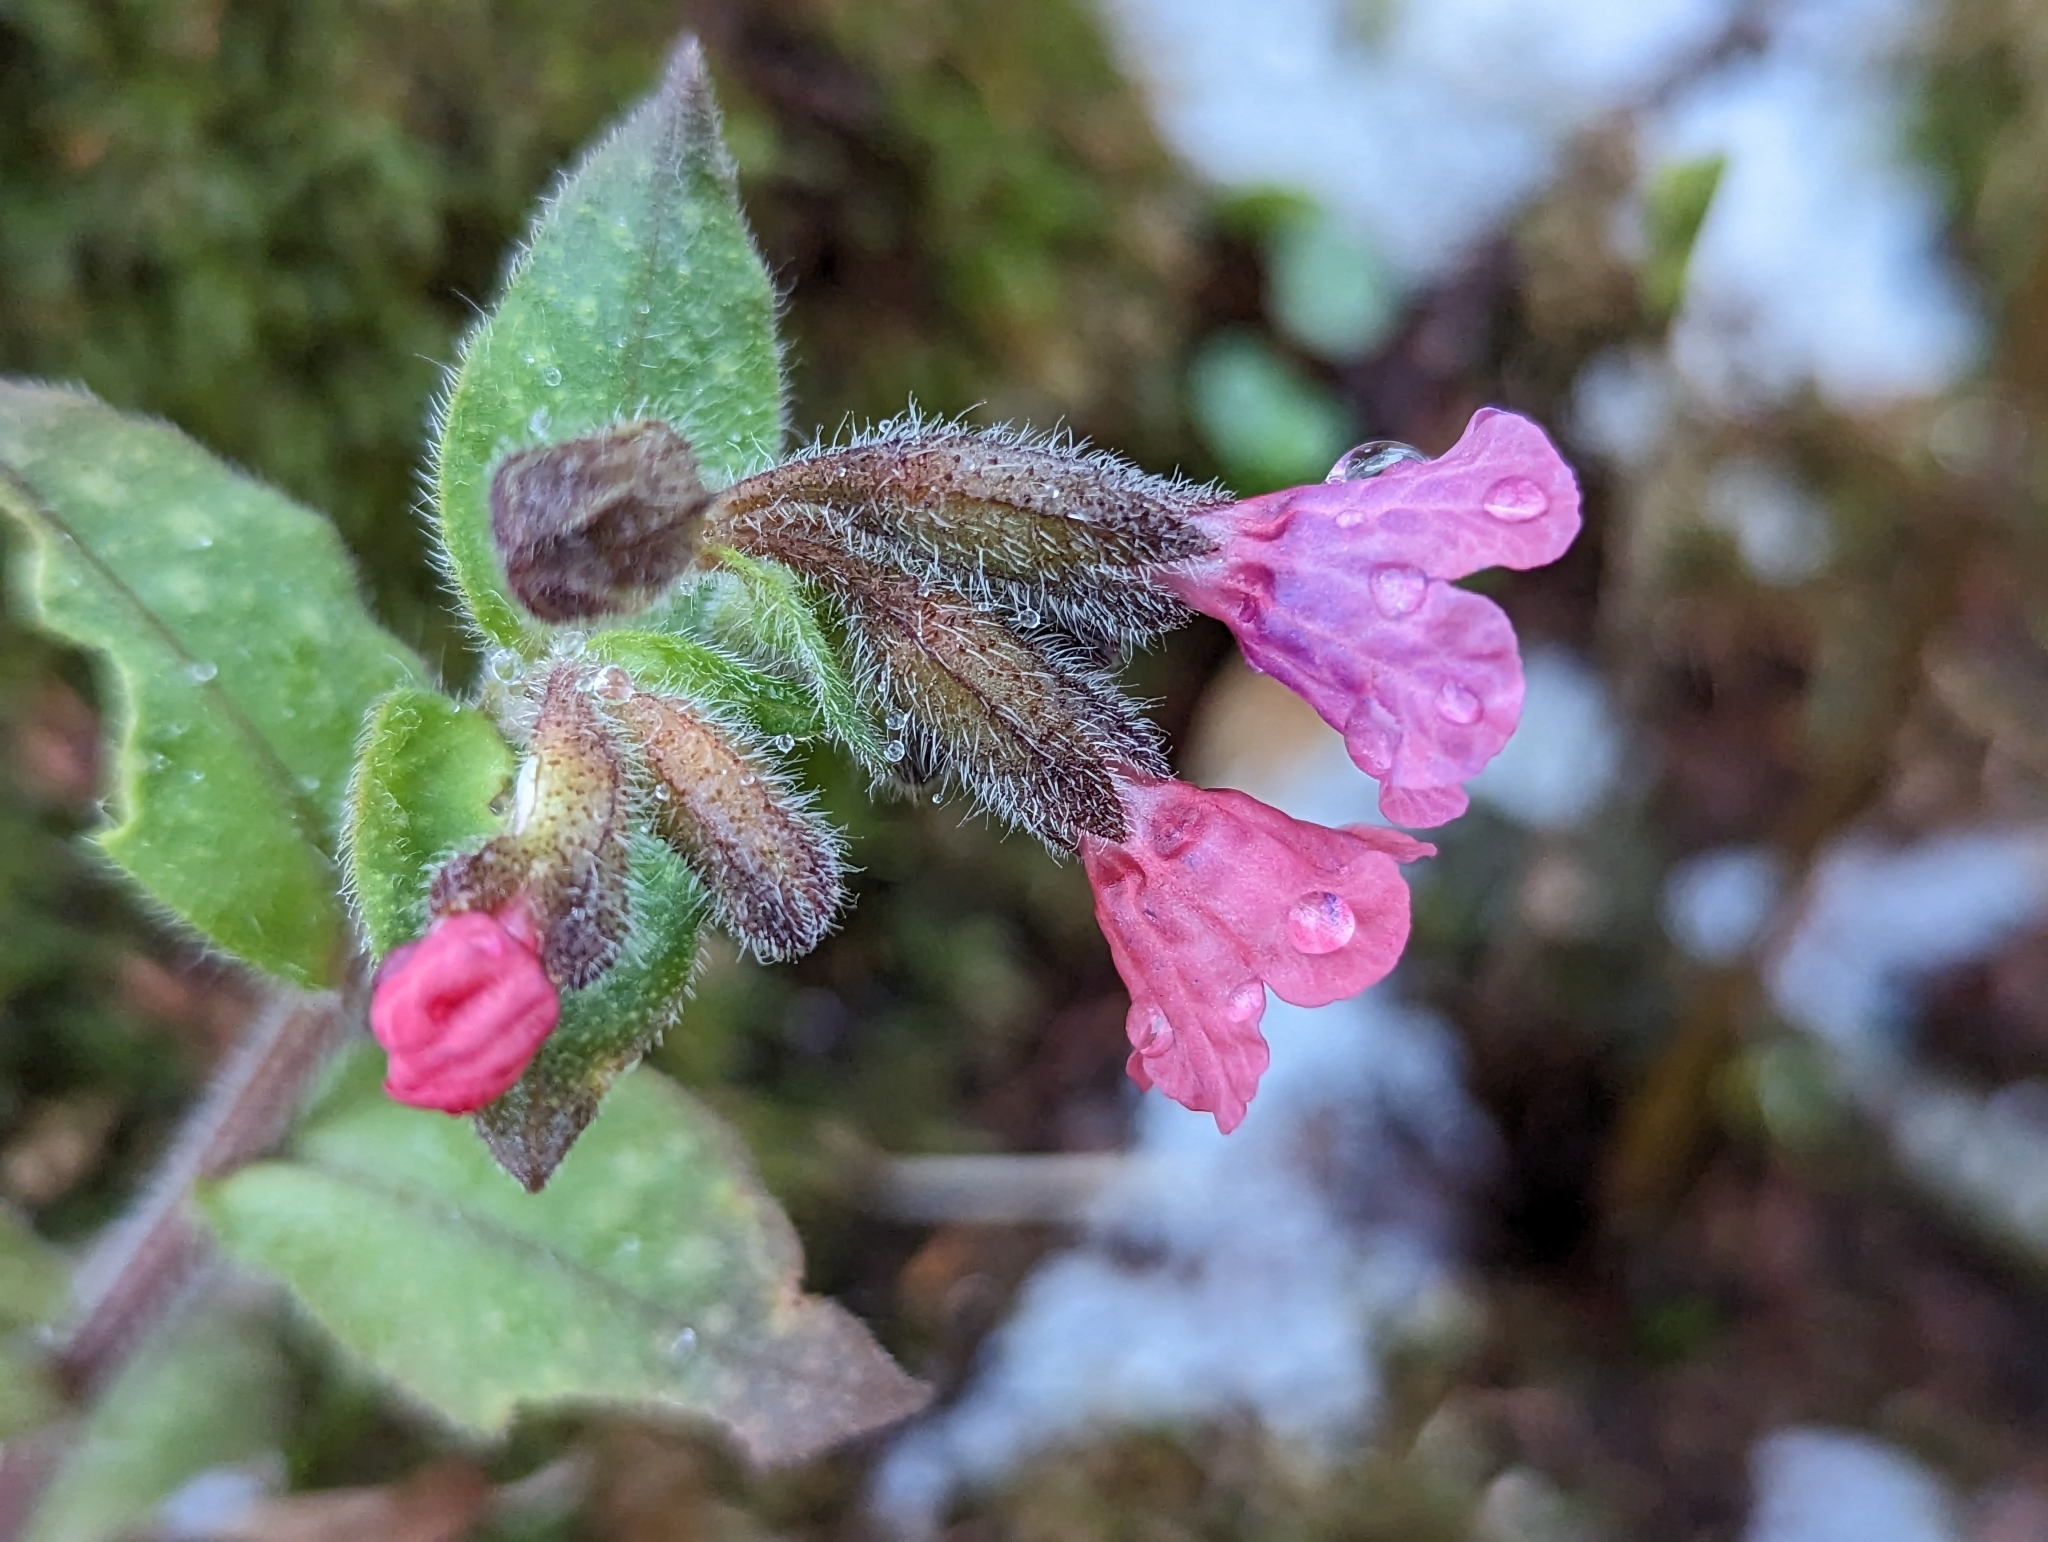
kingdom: Plantae
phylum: Tracheophyta
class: Magnoliopsida
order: Boraginales
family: Boraginaceae
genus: Pulmonaria
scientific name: Pulmonaria officinalis
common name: Lungwort
